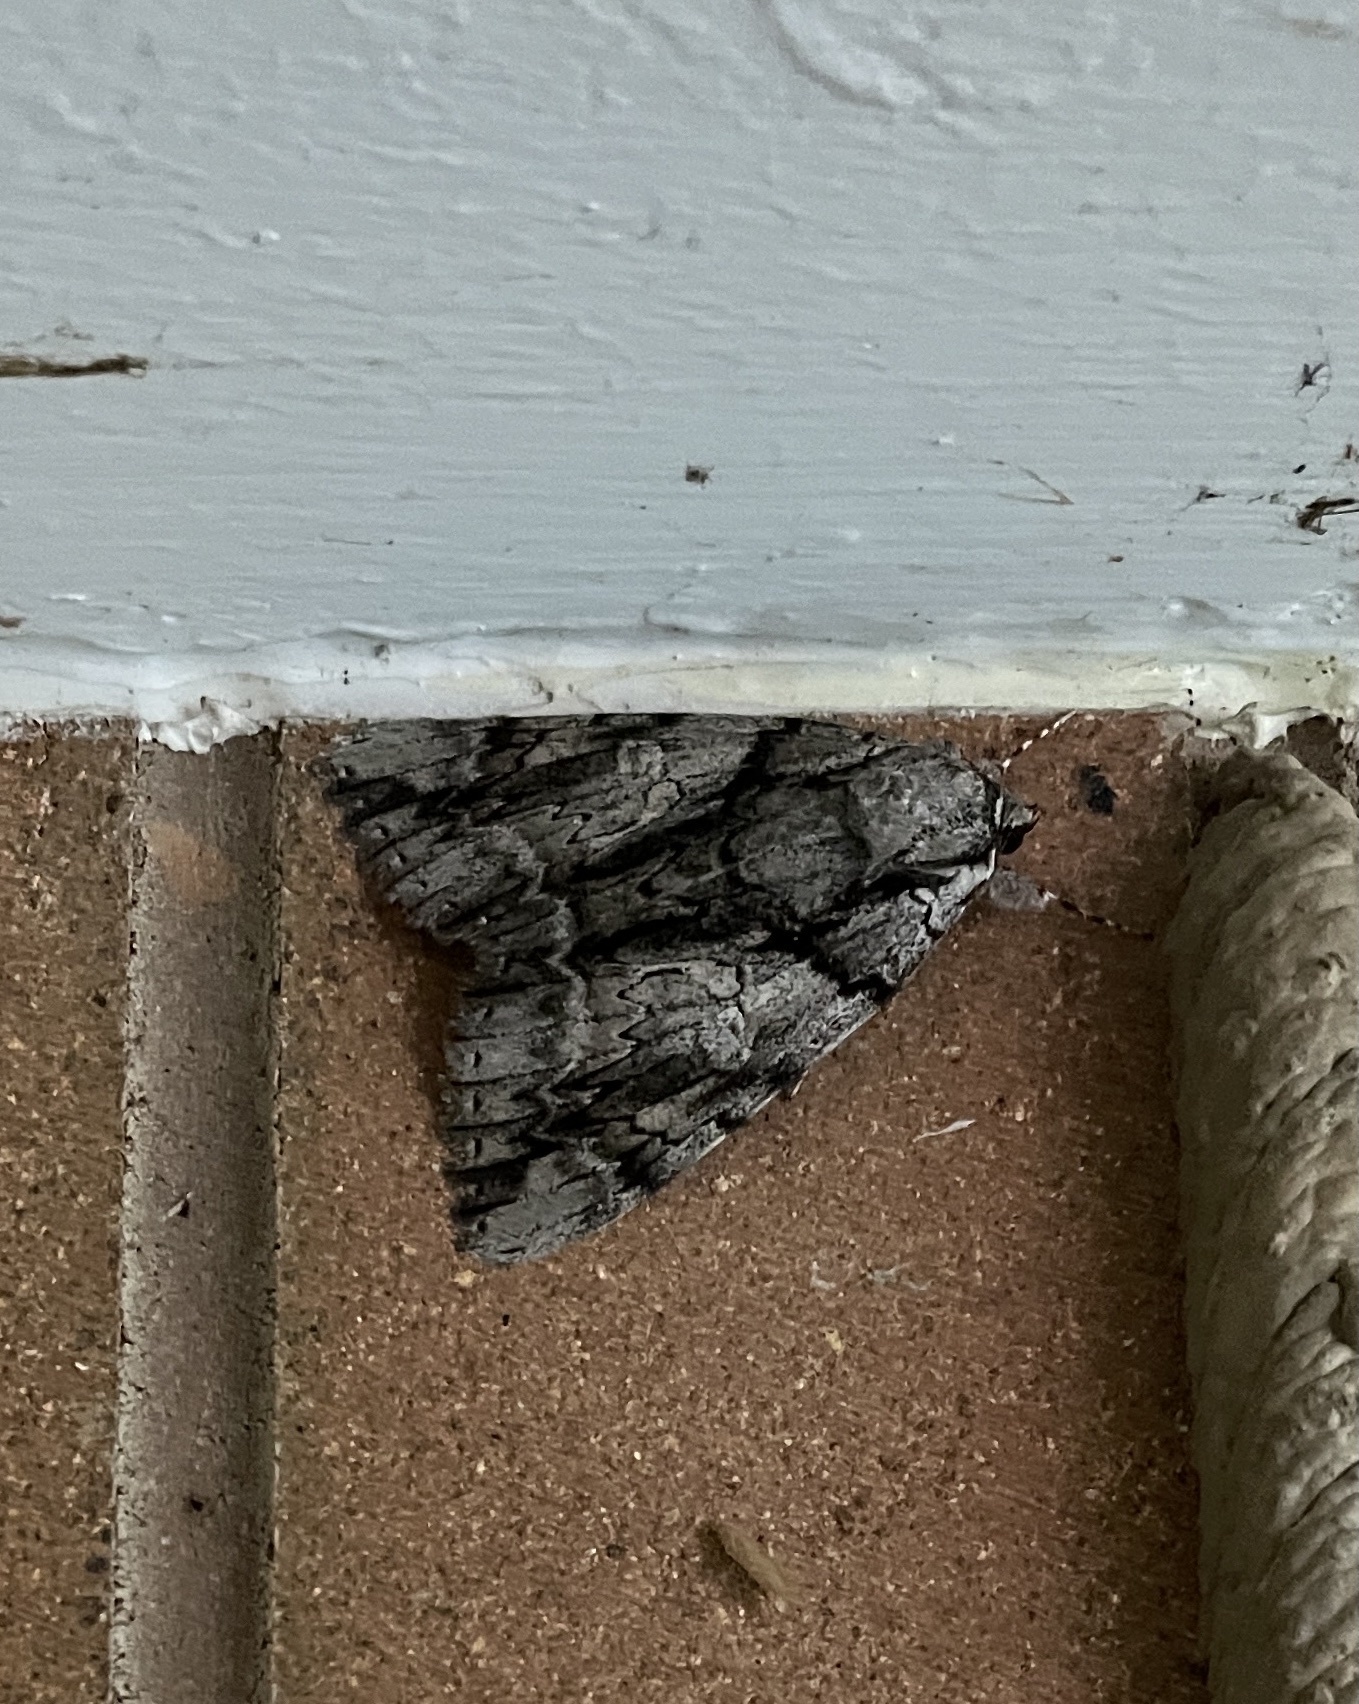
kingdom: Animalia
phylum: Arthropoda
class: Insecta
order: Lepidoptera
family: Erebidae
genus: Catocala
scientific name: Catocala vidua
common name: The widow
